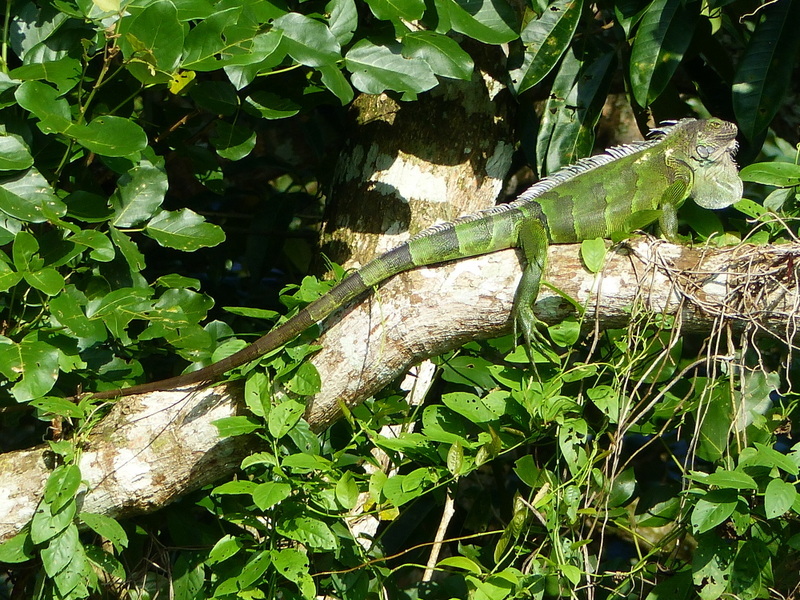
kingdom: Animalia
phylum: Chordata
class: Squamata
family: Iguanidae
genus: Iguana
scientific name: Iguana iguana
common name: Green iguana
